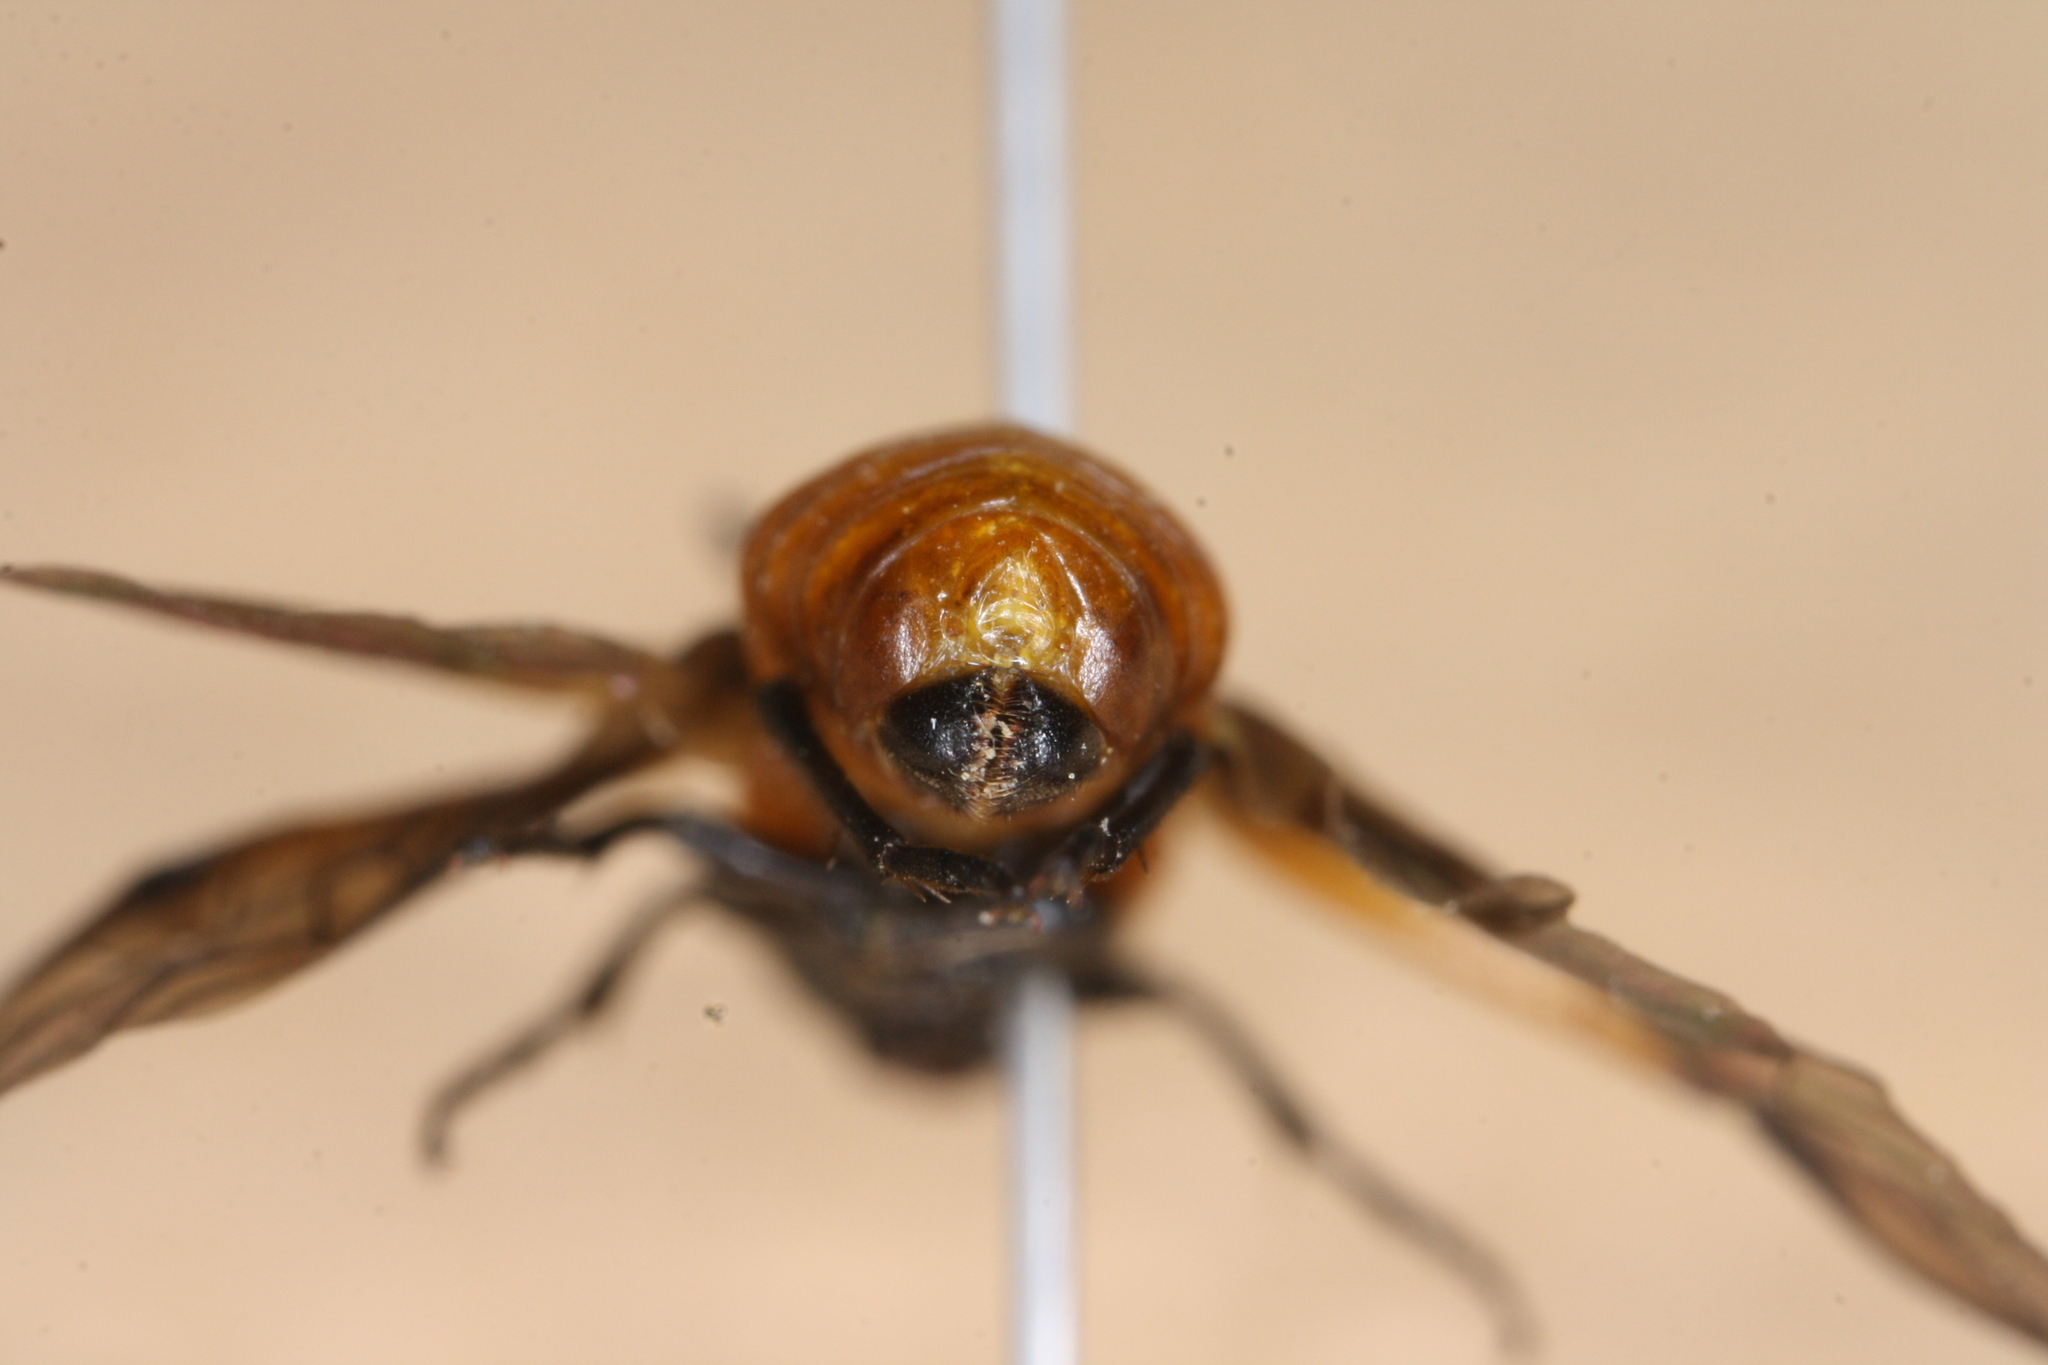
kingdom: Animalia
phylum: Arthropoda
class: Insecta
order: Hymenoptera
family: Argidae
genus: Arge
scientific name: Arge frivaldszkyi
